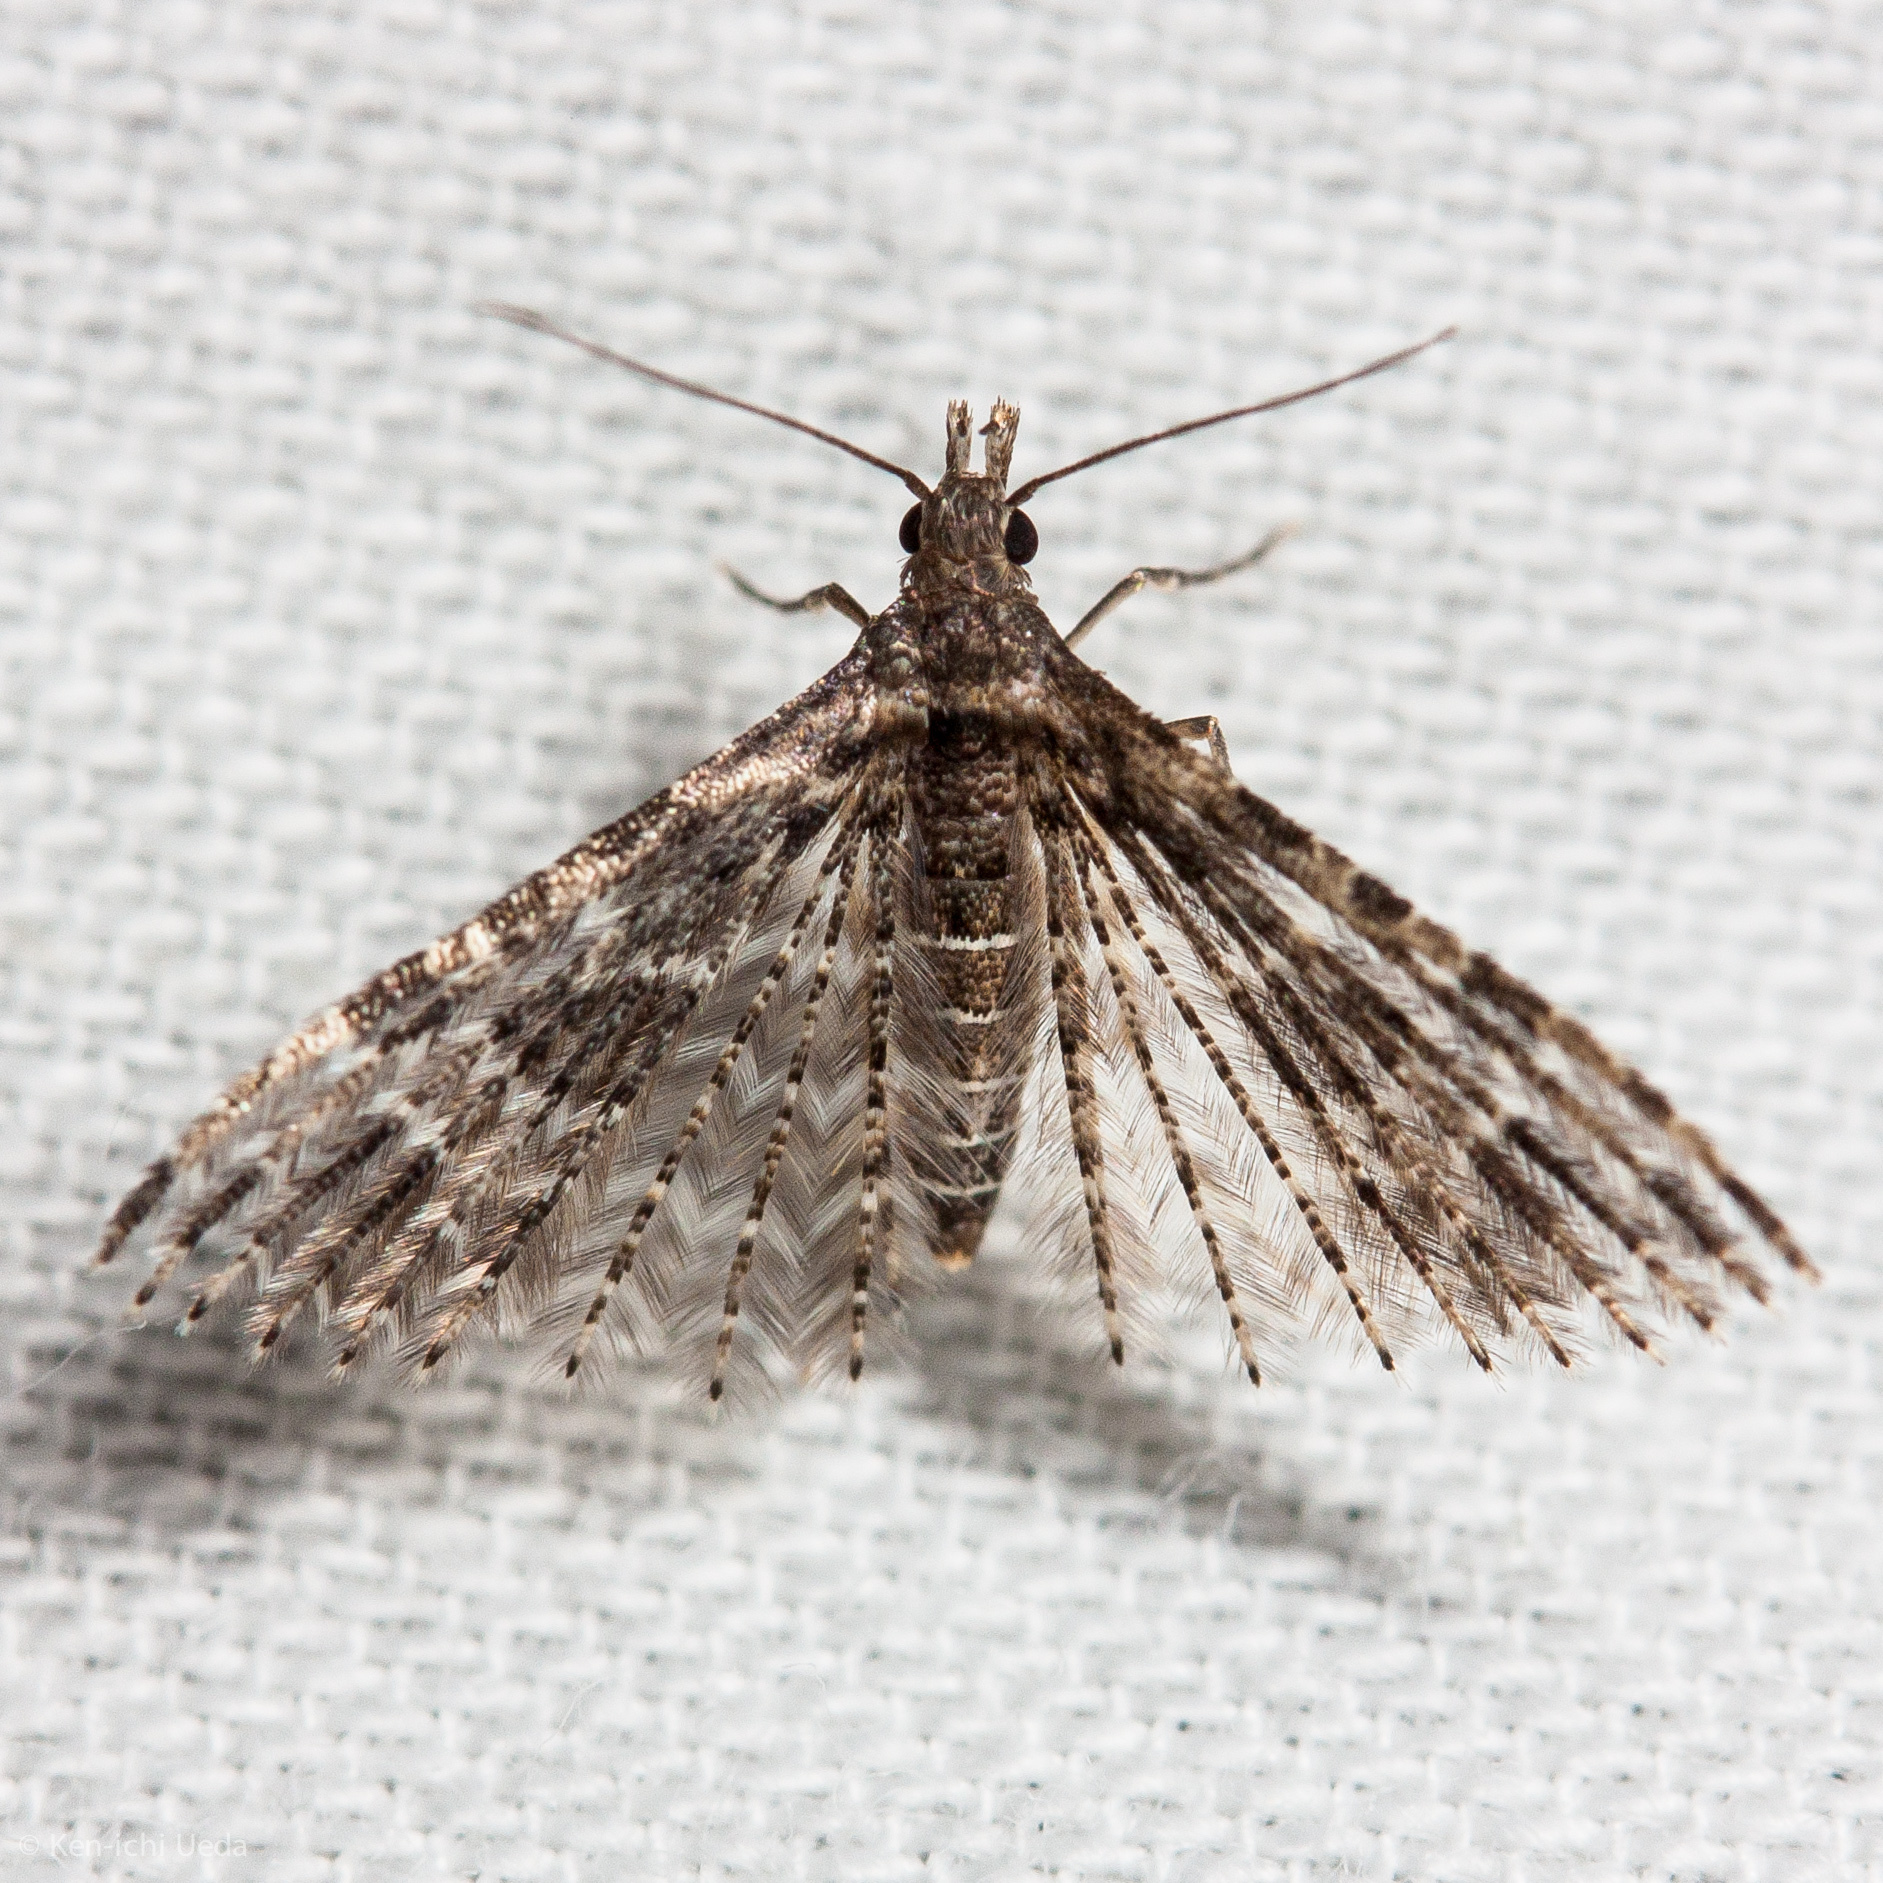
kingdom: Animalia
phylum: Arthropoda
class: Insecta
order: Lepidoptera
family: Alucitidae
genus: Alucita
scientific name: Alucita montana
